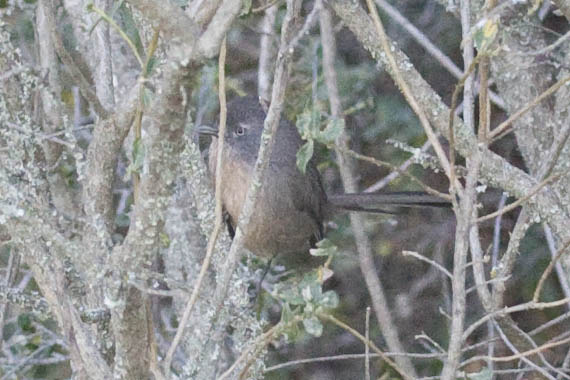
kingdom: Animalia
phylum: Chordata
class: Aves
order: Passeriformes
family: Sylviidae
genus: Chamaea
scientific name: Chamaea fasciata
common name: Wrentit
